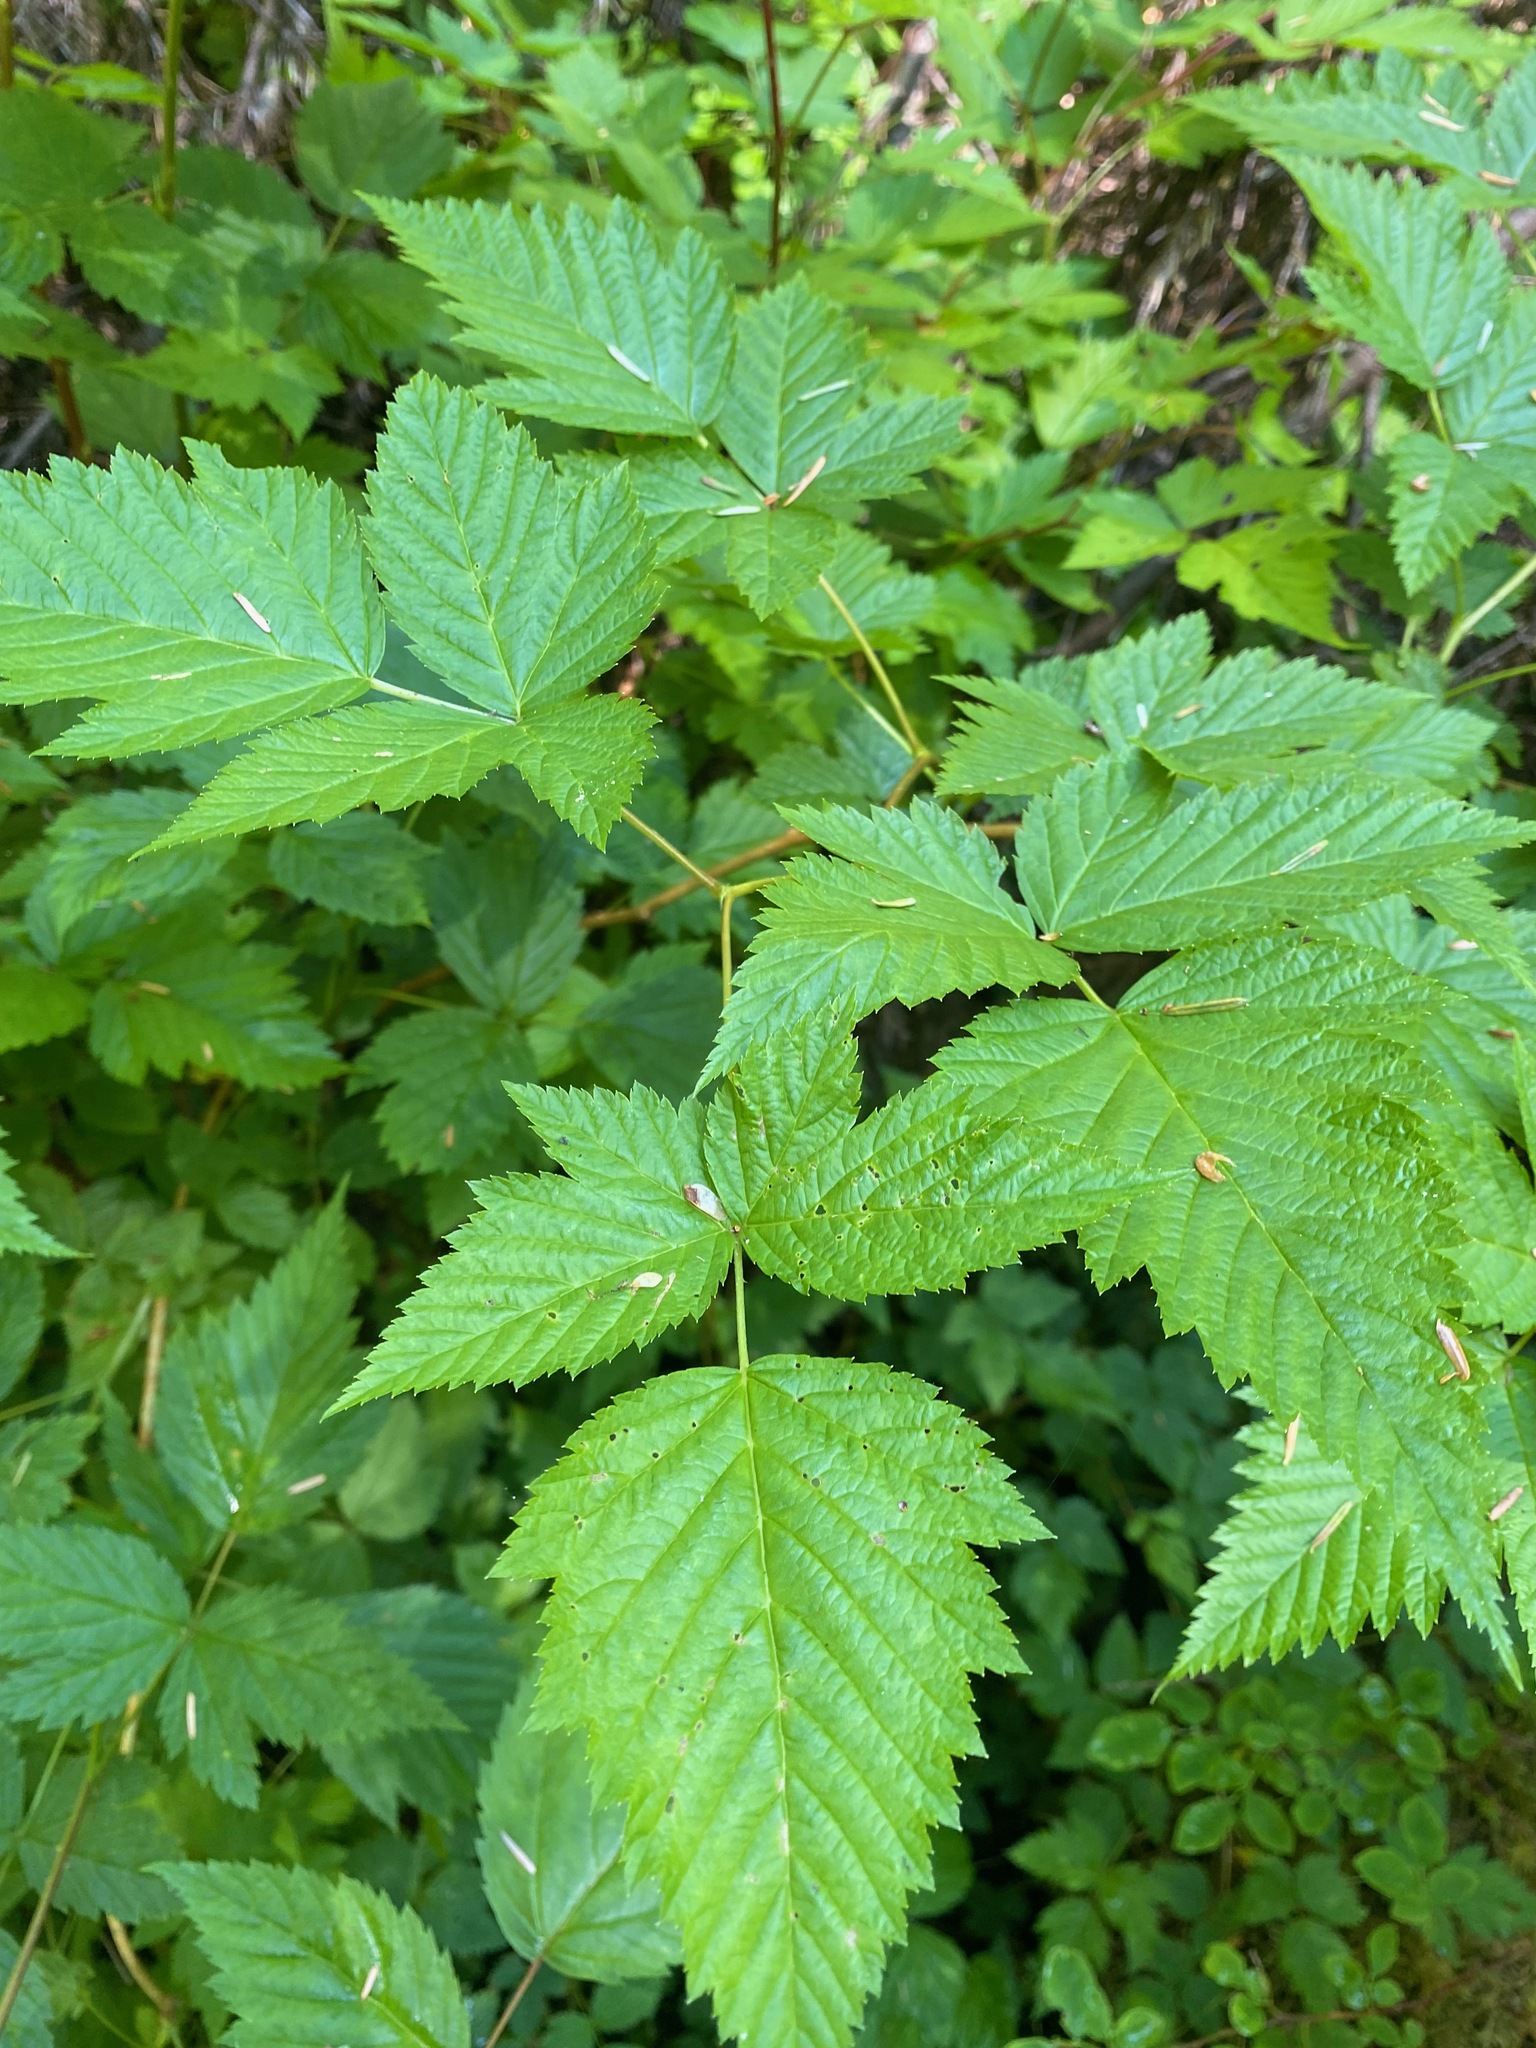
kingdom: Plantae
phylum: Tracheophyta
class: Magnoliopsida
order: Rosales
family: Rosaceae
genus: Rubus
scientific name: Rubus spectabilis
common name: Salmonberry
